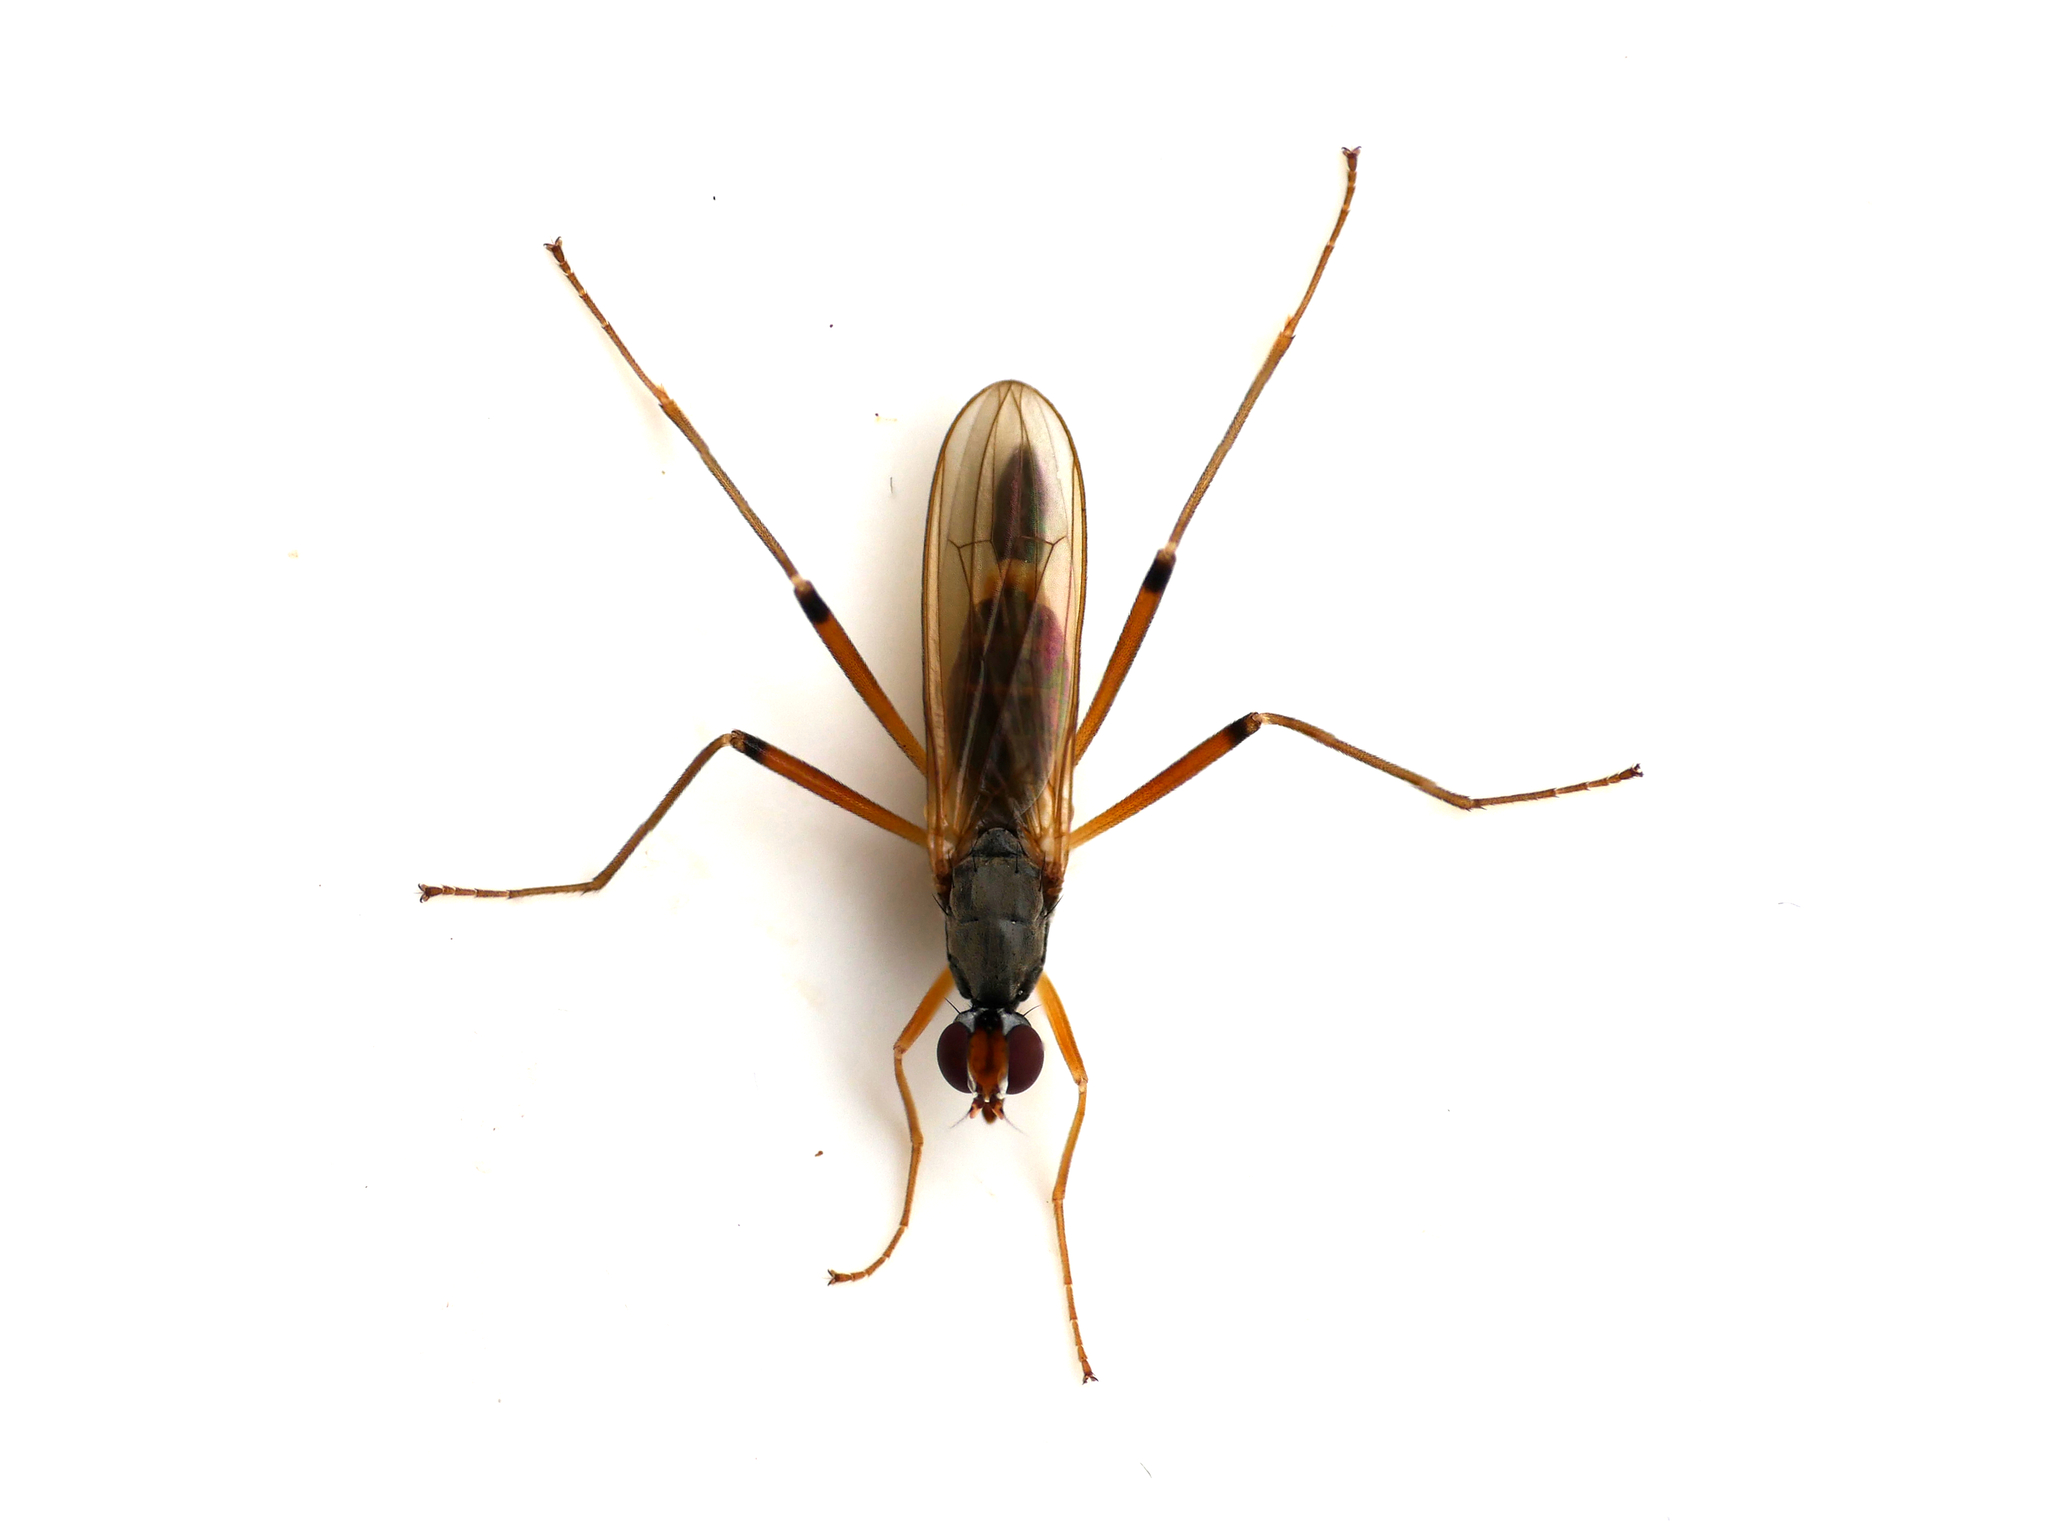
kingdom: Animalia
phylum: Arthropoda
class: Insecta
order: Diptera
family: Micropezidae
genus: Compsobata
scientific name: Compsobata cibaria
